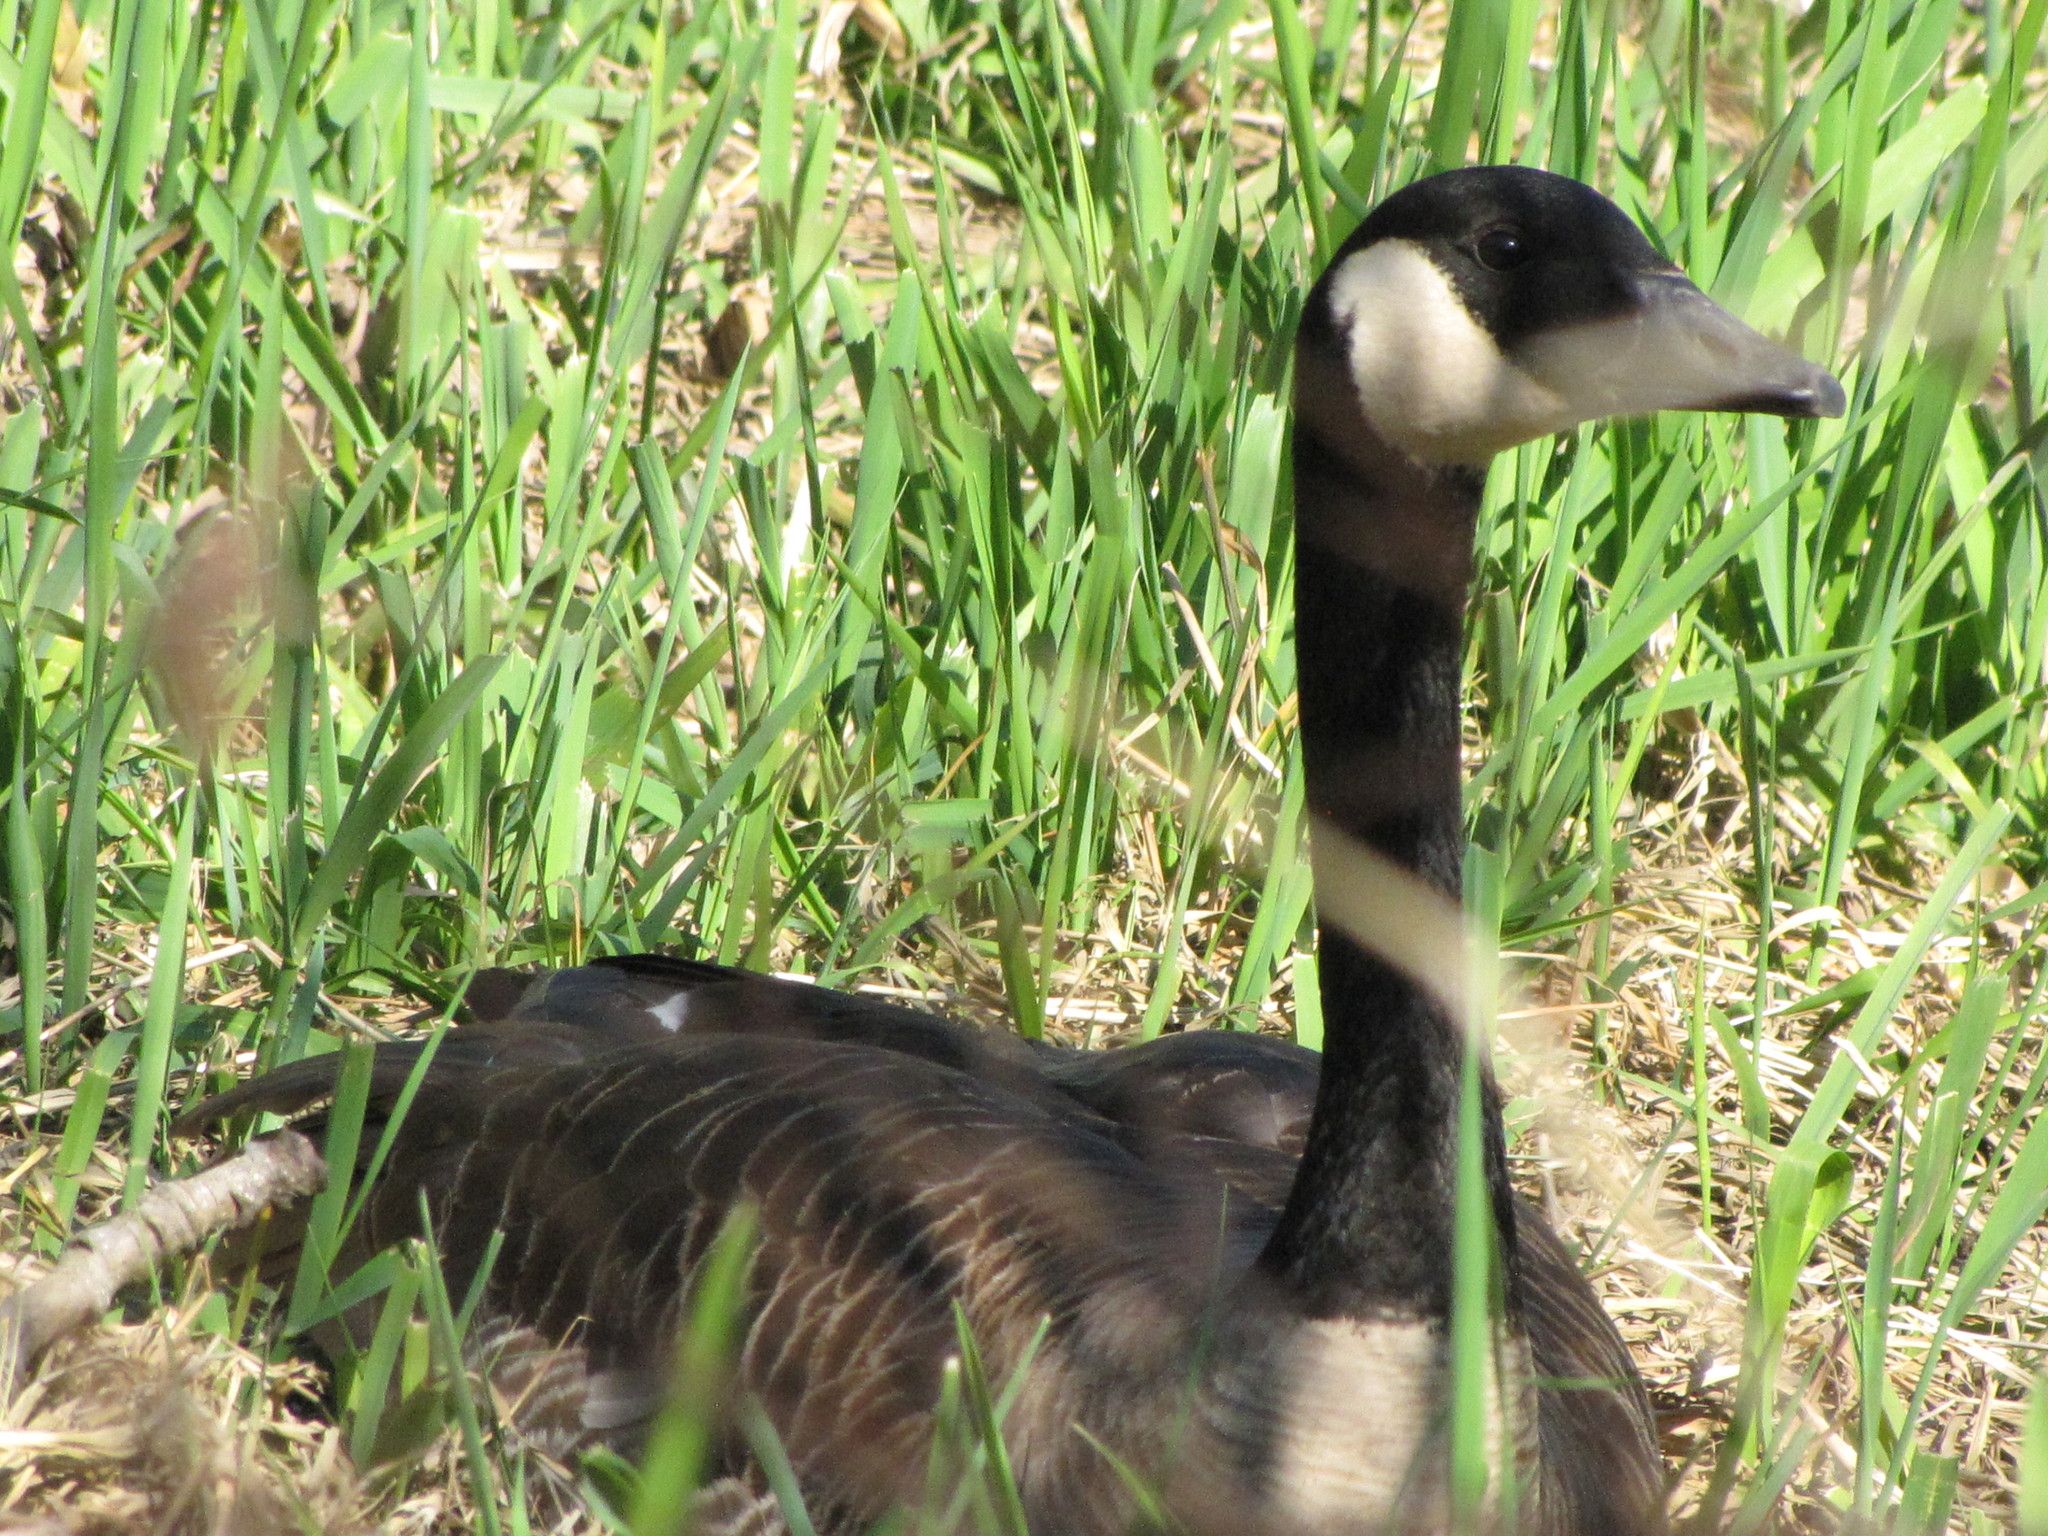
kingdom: Animalia
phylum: Chordata
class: Aves
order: Anseriformes
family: Anatidae
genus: Branta
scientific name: Branta canadensis
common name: Canada goose
